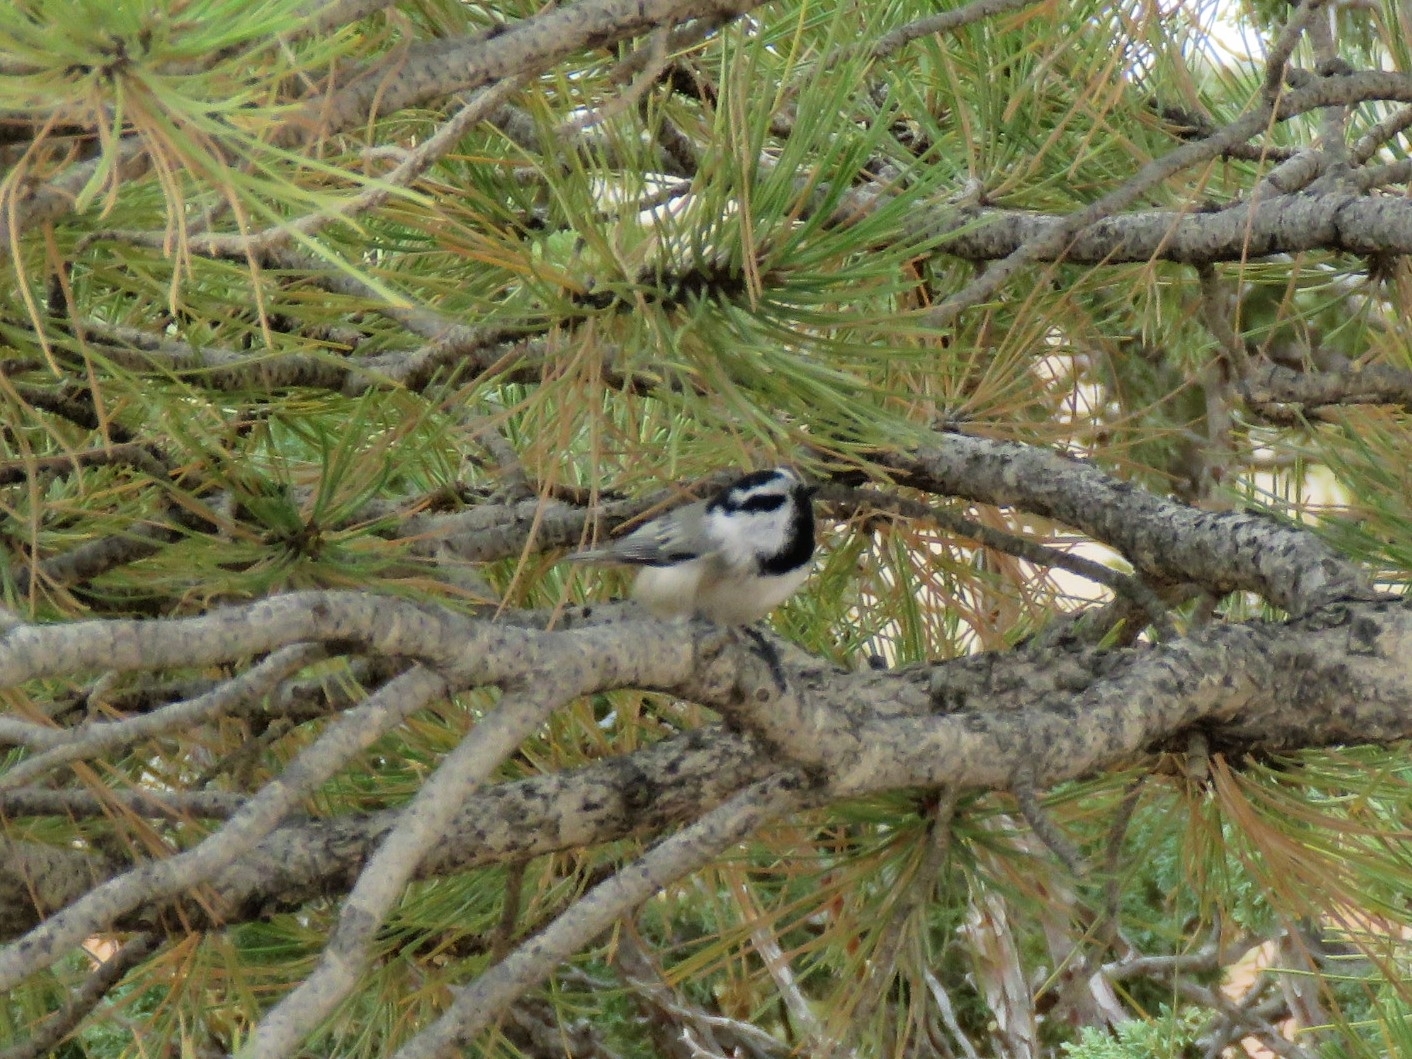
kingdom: Animalia
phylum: Chordata
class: Aves
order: Passeriformes
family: Paridae
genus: Poecile
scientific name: Poecile gambeli
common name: Mountain chickadee
